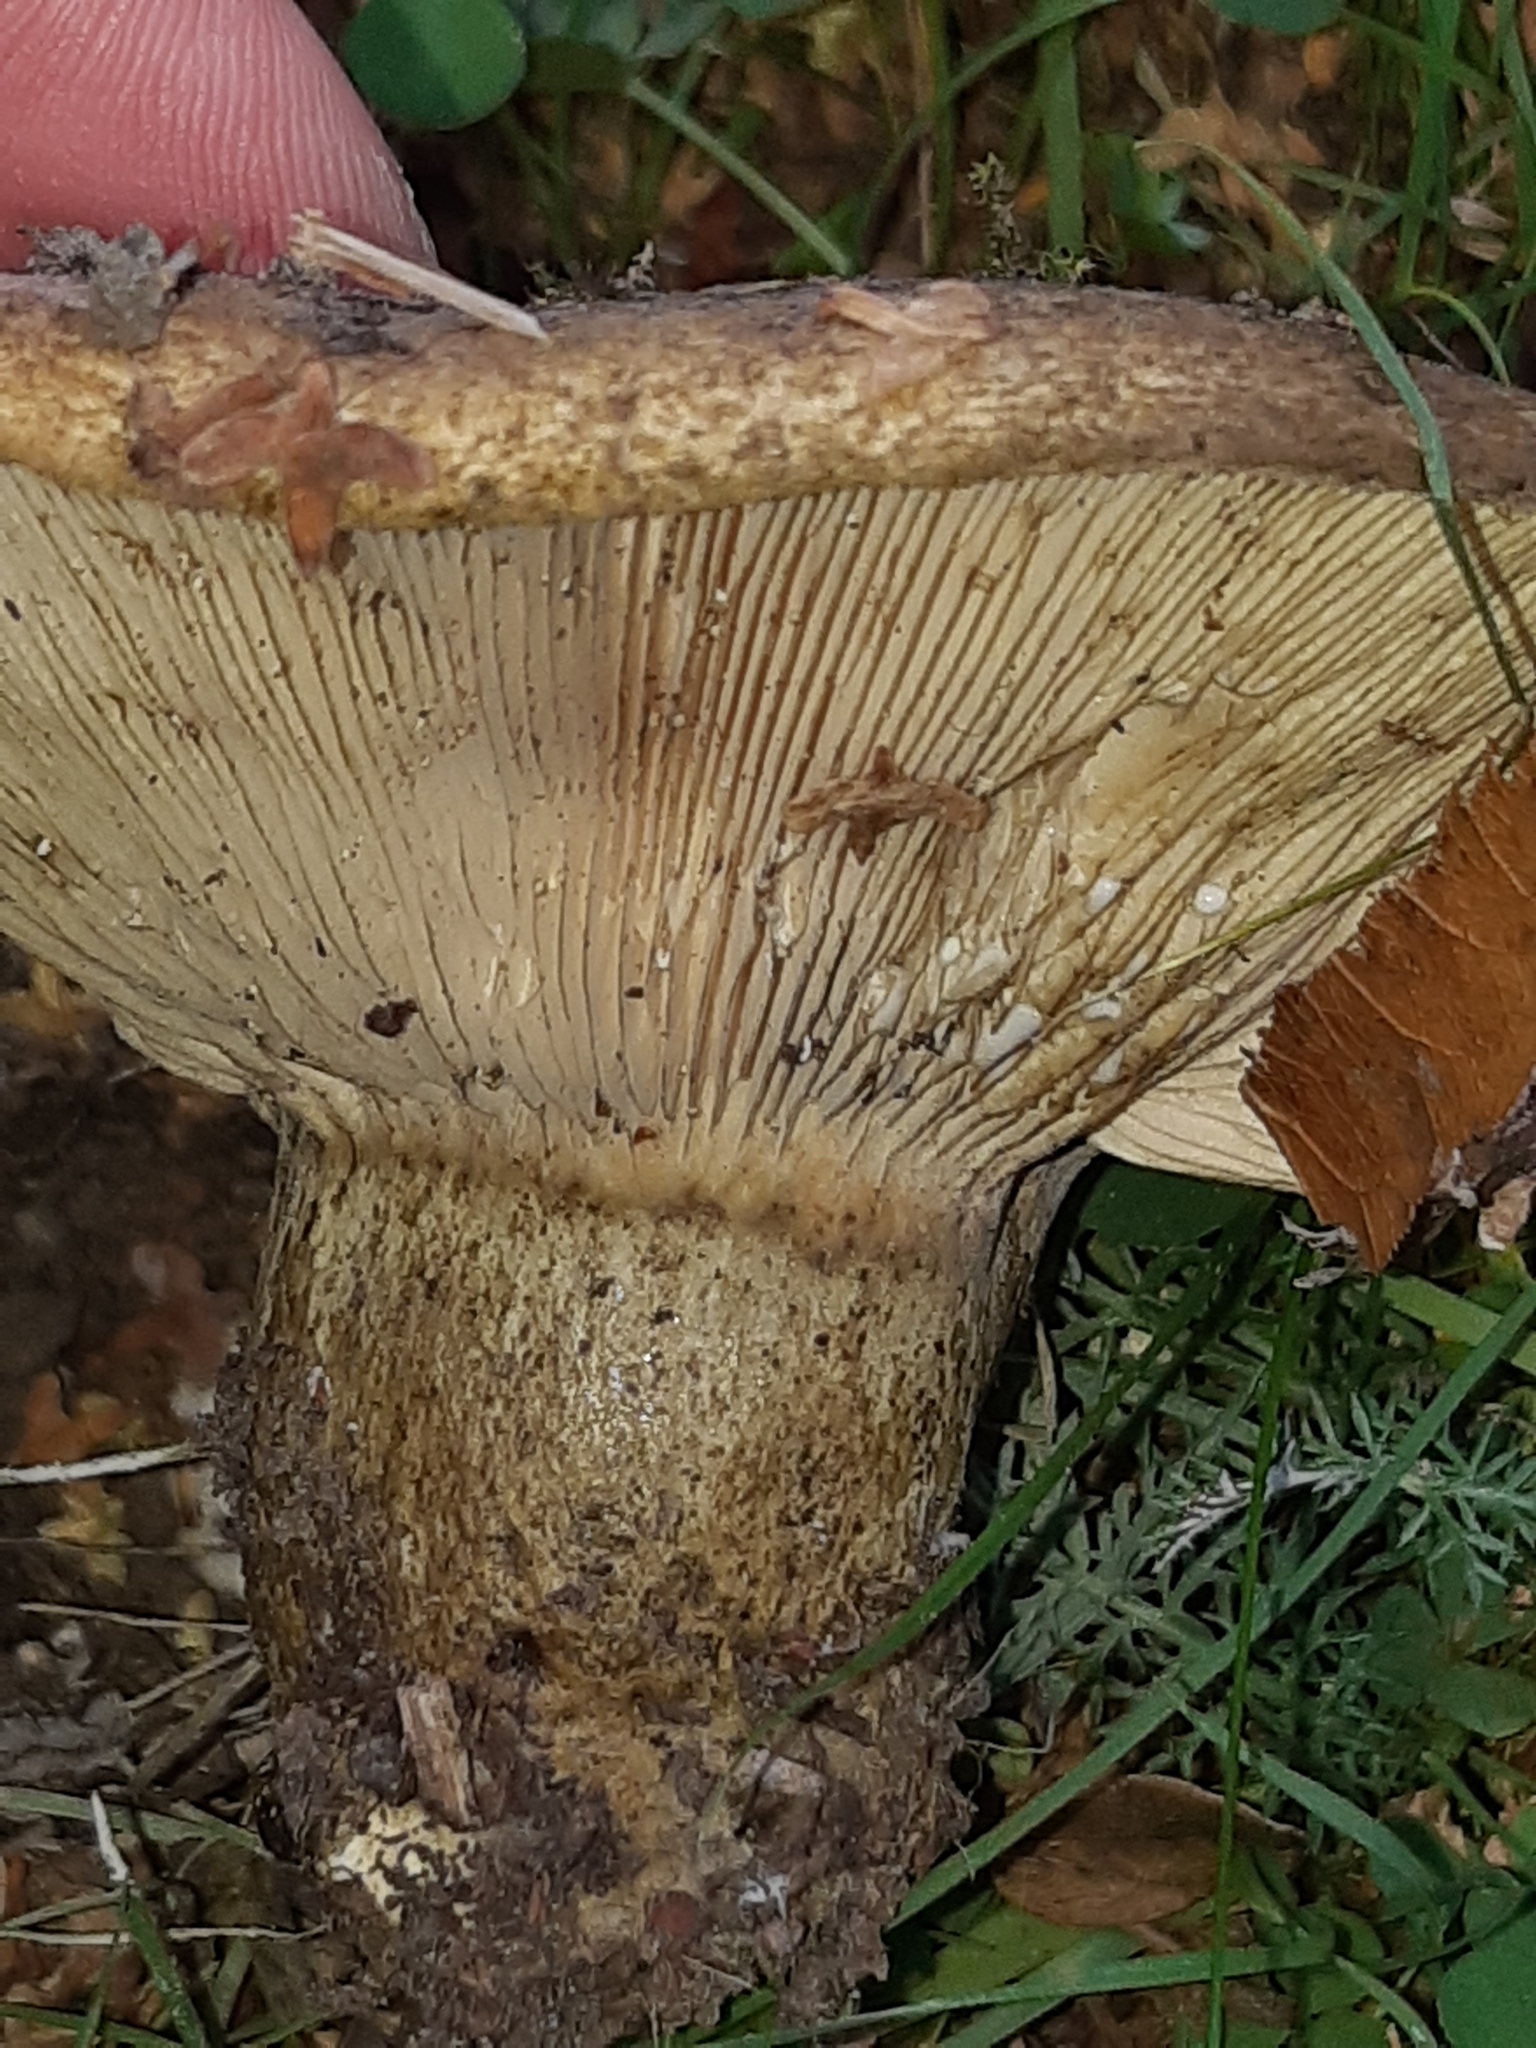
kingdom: Fungi
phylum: Basidiomycota
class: Agaricomycetes
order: Russulales
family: Russulaceae
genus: Lactarius
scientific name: Lactarius turpis
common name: Ugly milk-cap
